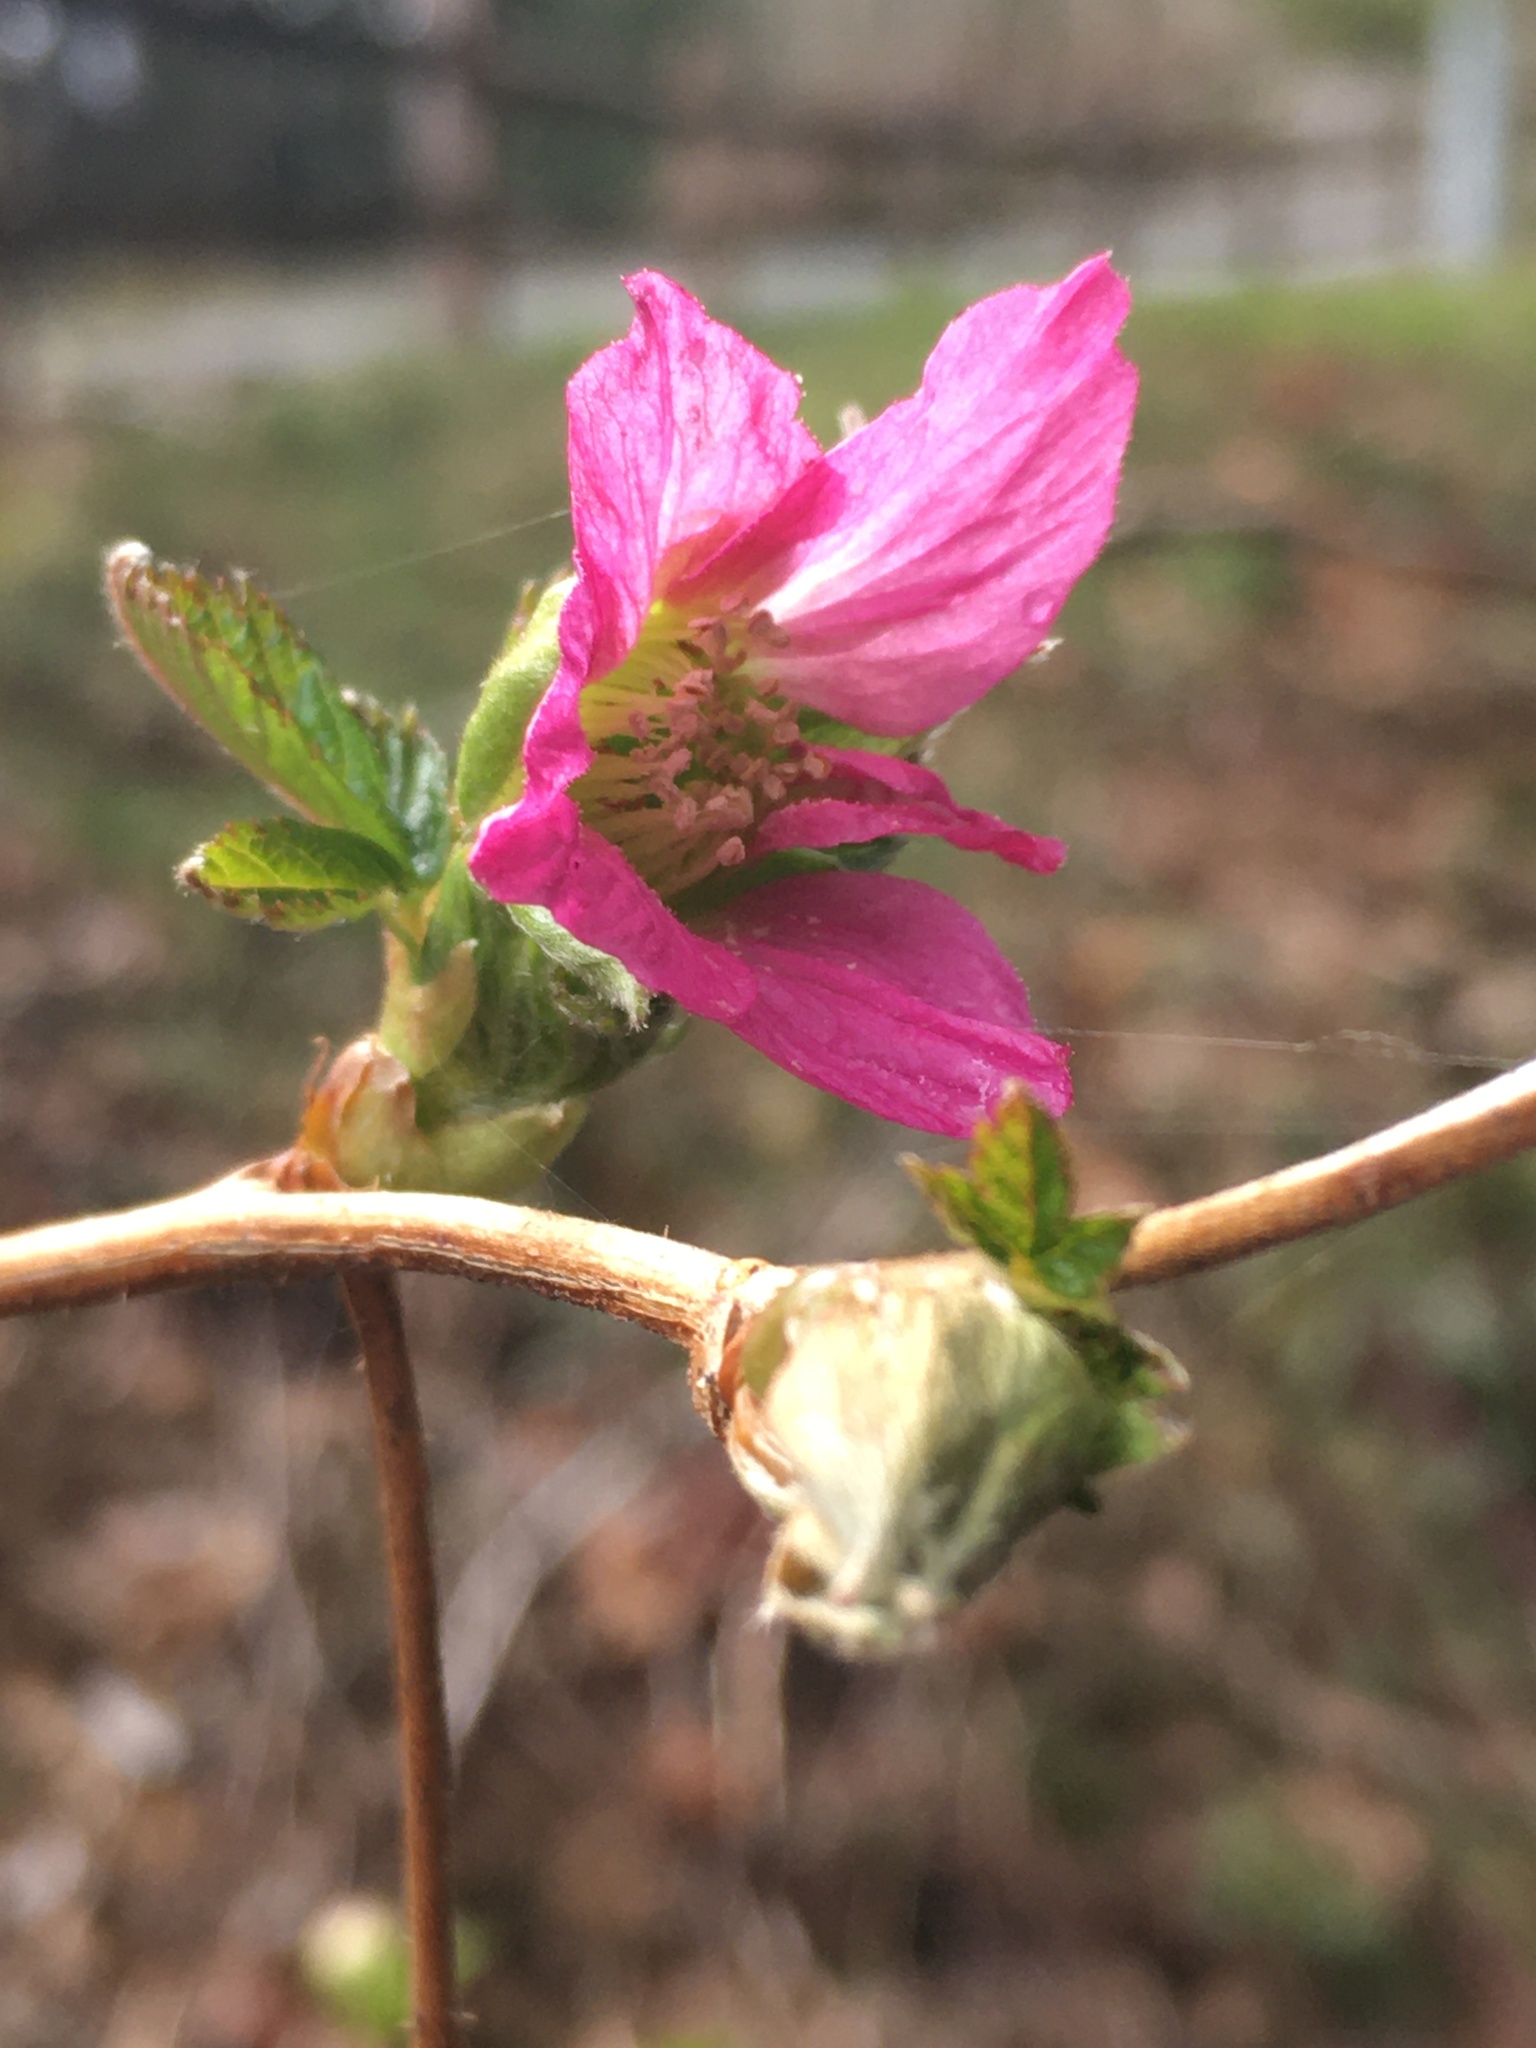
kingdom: Plantae
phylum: Tracheophyta
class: Magnoliopsida
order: Rosales
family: Rosaceae
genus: Rubus
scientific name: Rubus spectabilis
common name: Salmonberry
